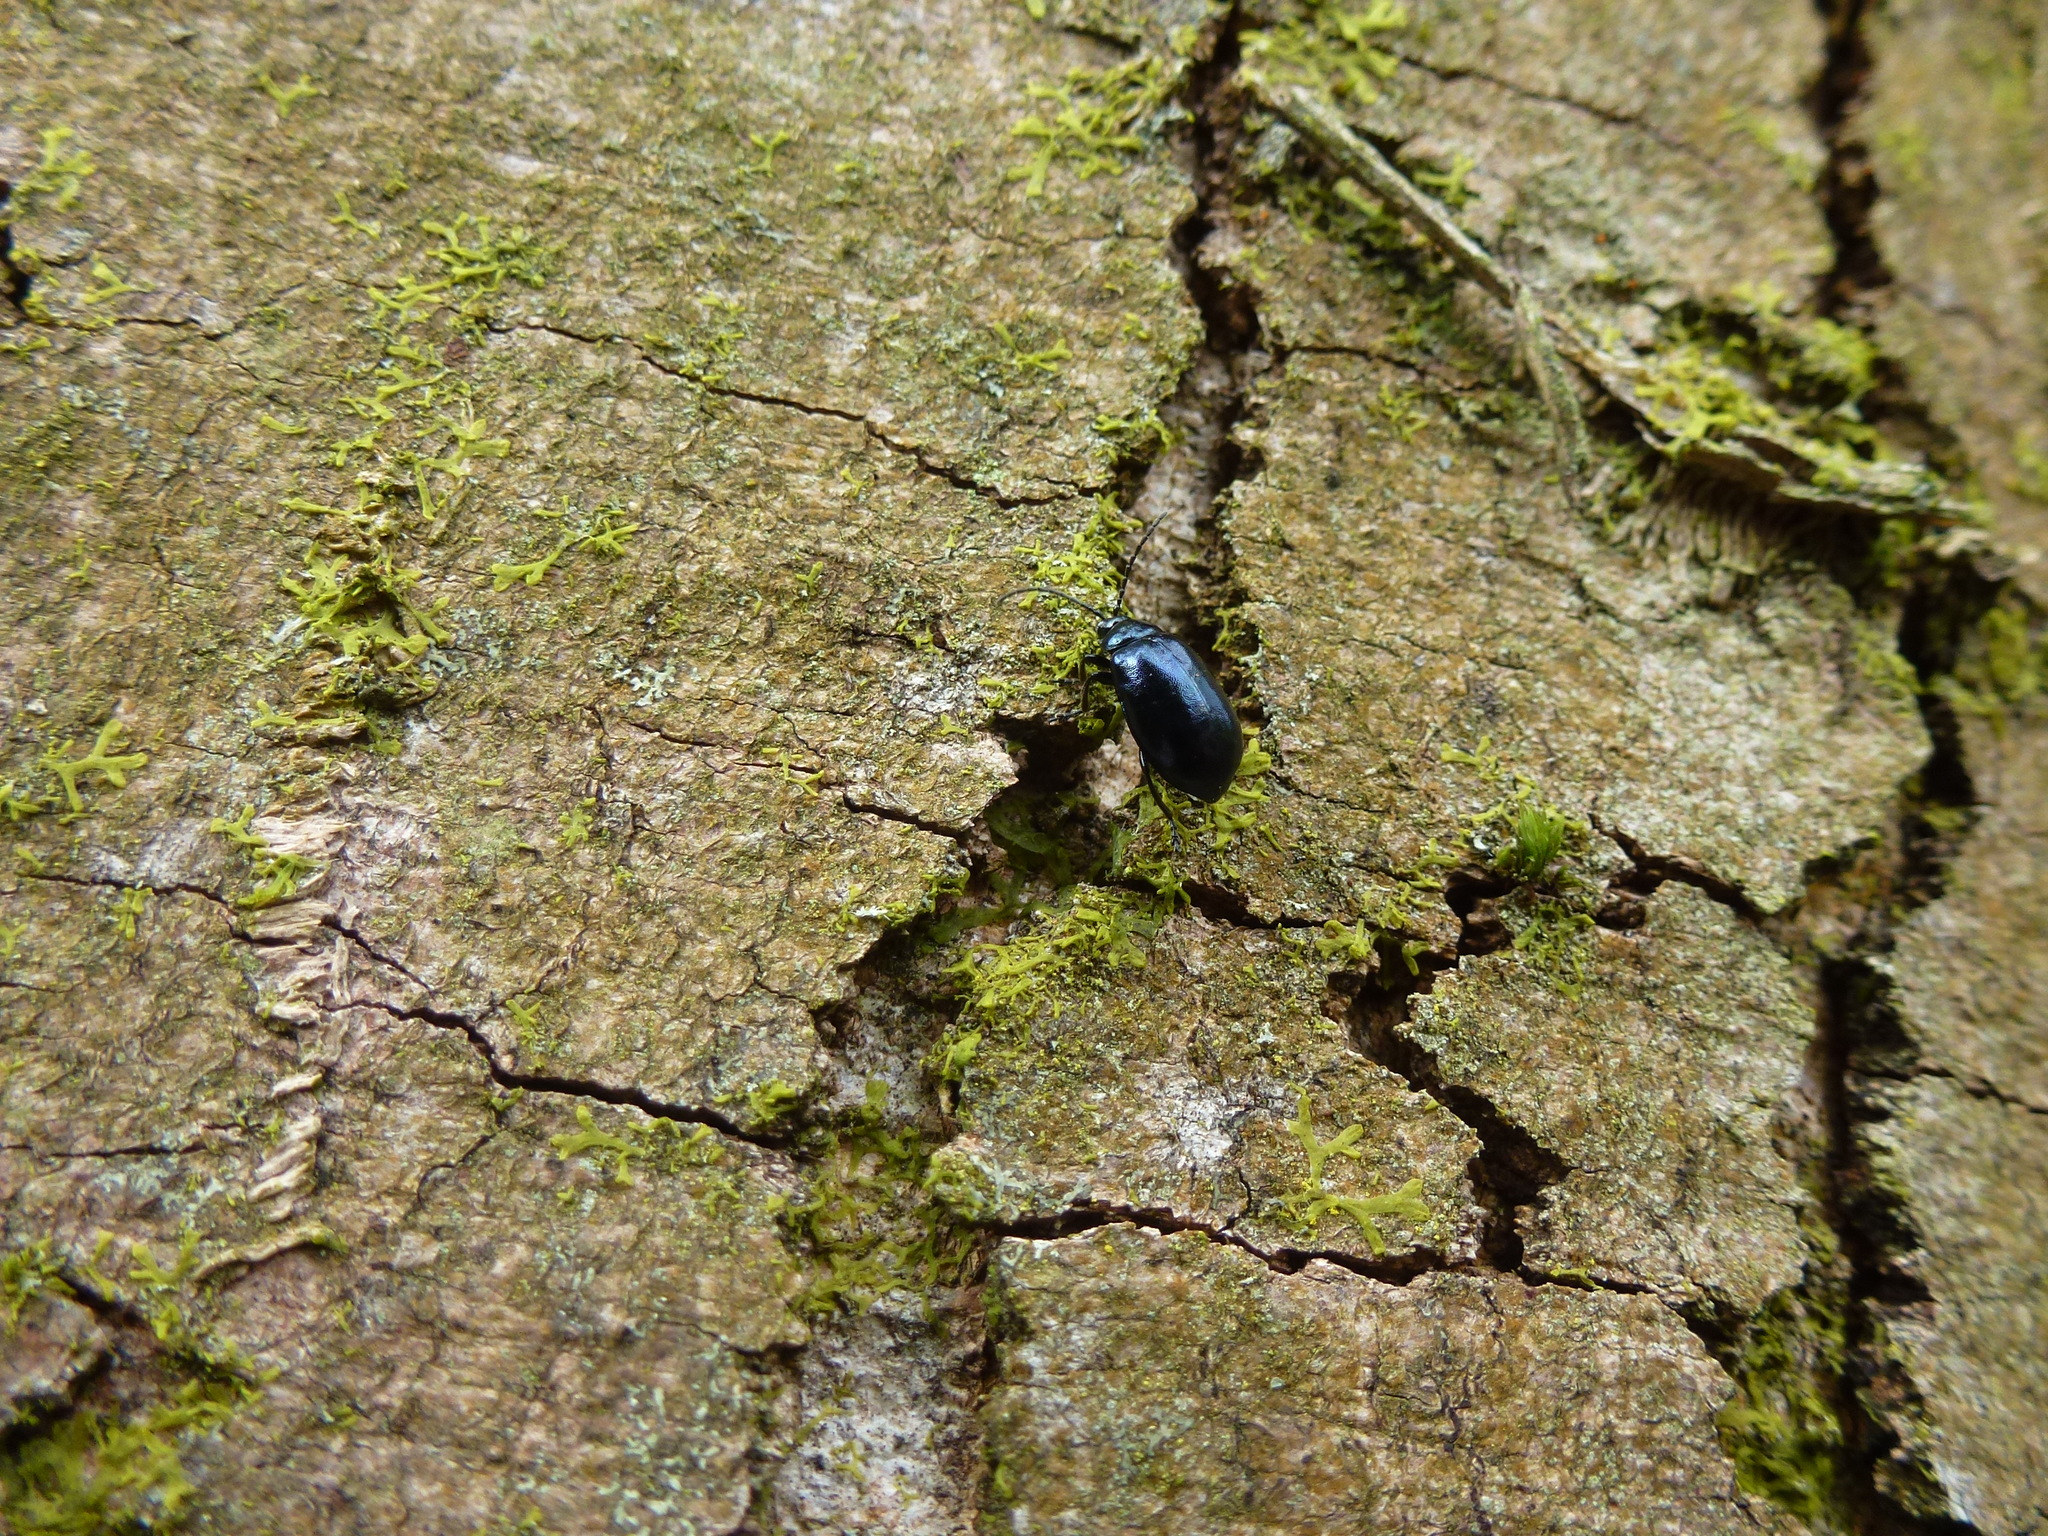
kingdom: Animalia
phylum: Arthropoda
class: Insecta
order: Coleoptera
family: Chrysomelidae
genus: Agelastica
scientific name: Agelastica alni
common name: Alder leaf beetle
